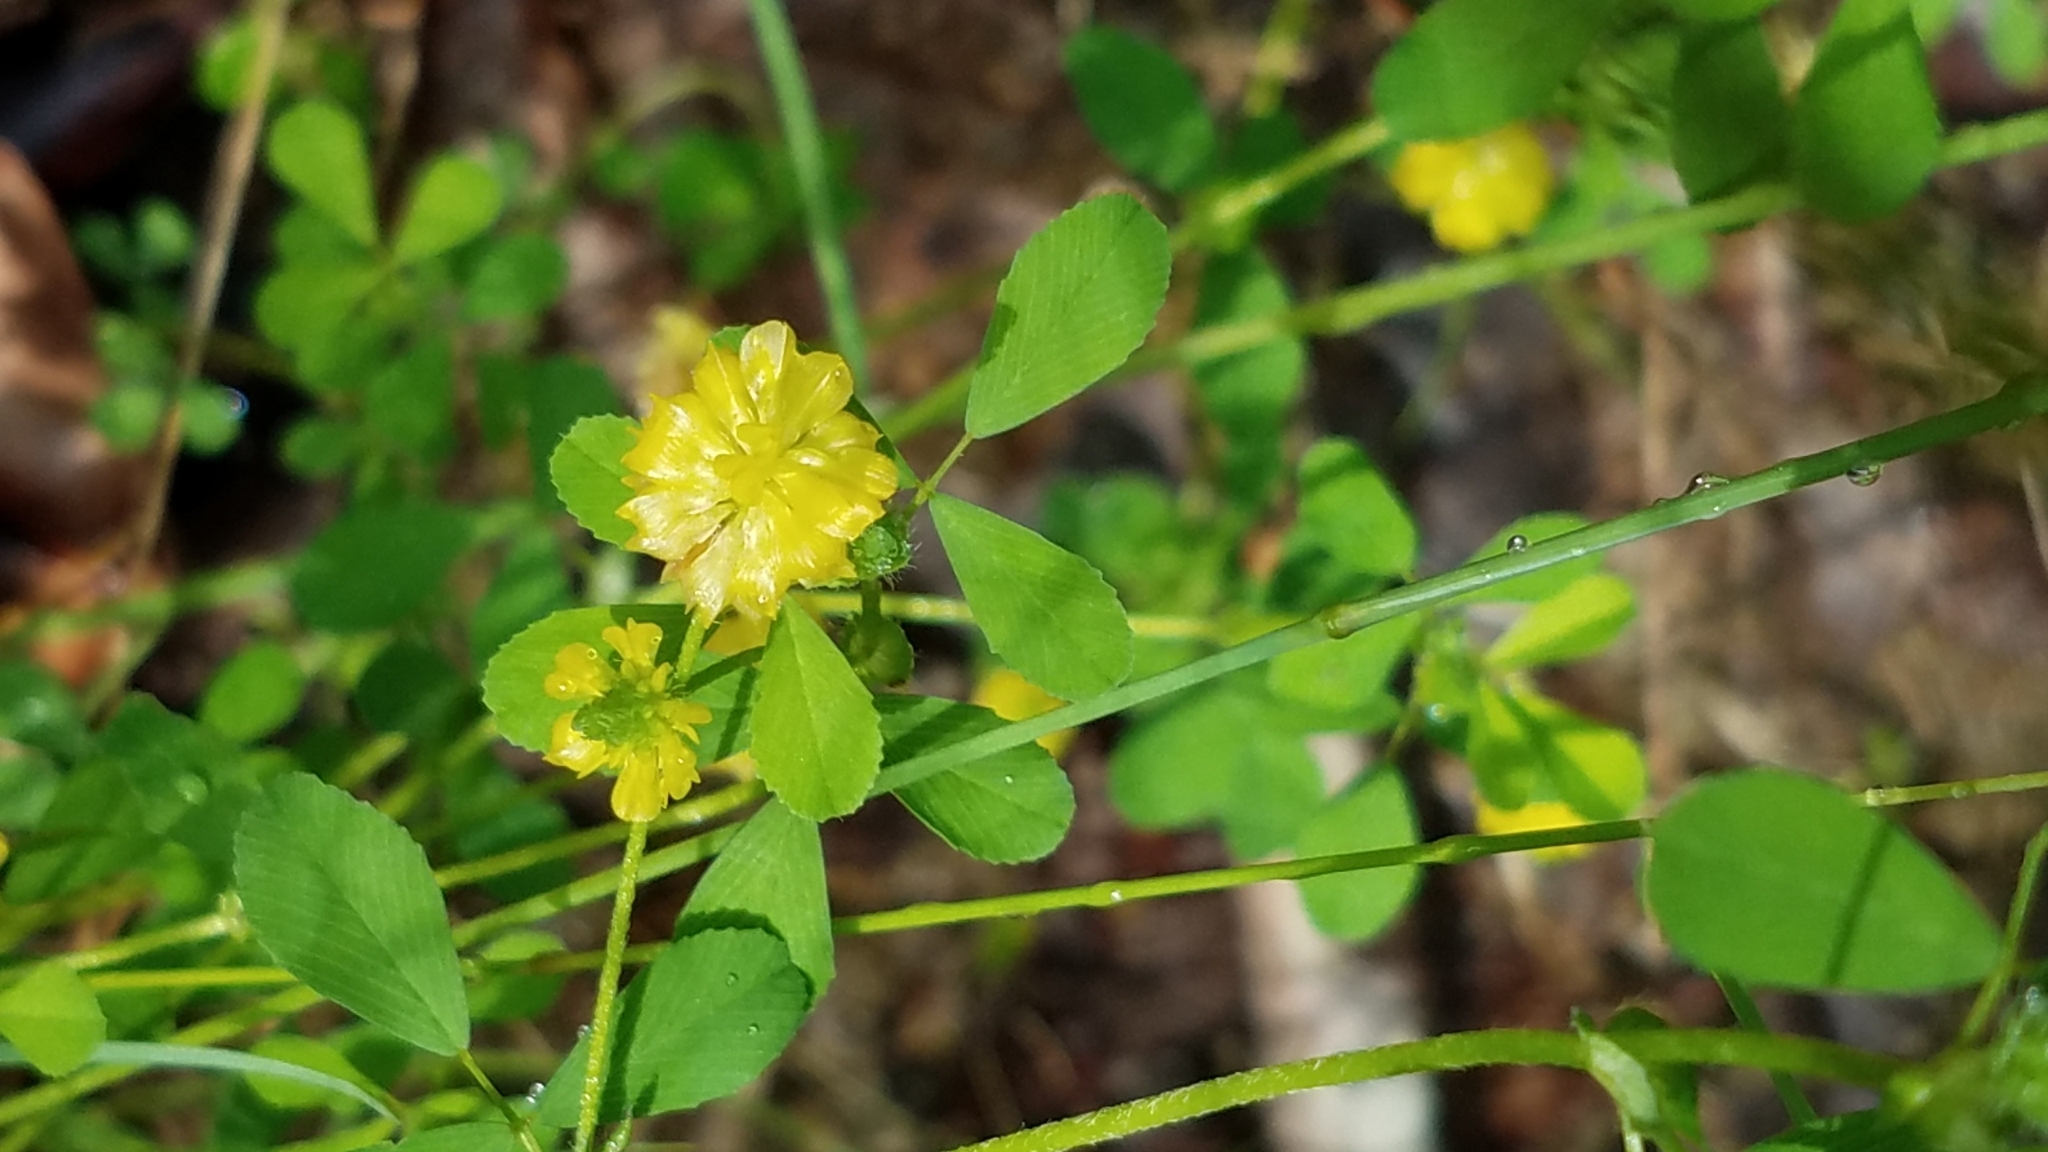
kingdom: Plantae
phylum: Tracheophyta
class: Magnoliopsida
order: Fabales
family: Fabaceae
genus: Trifolium
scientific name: Trifolium campestre
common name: Field clover
